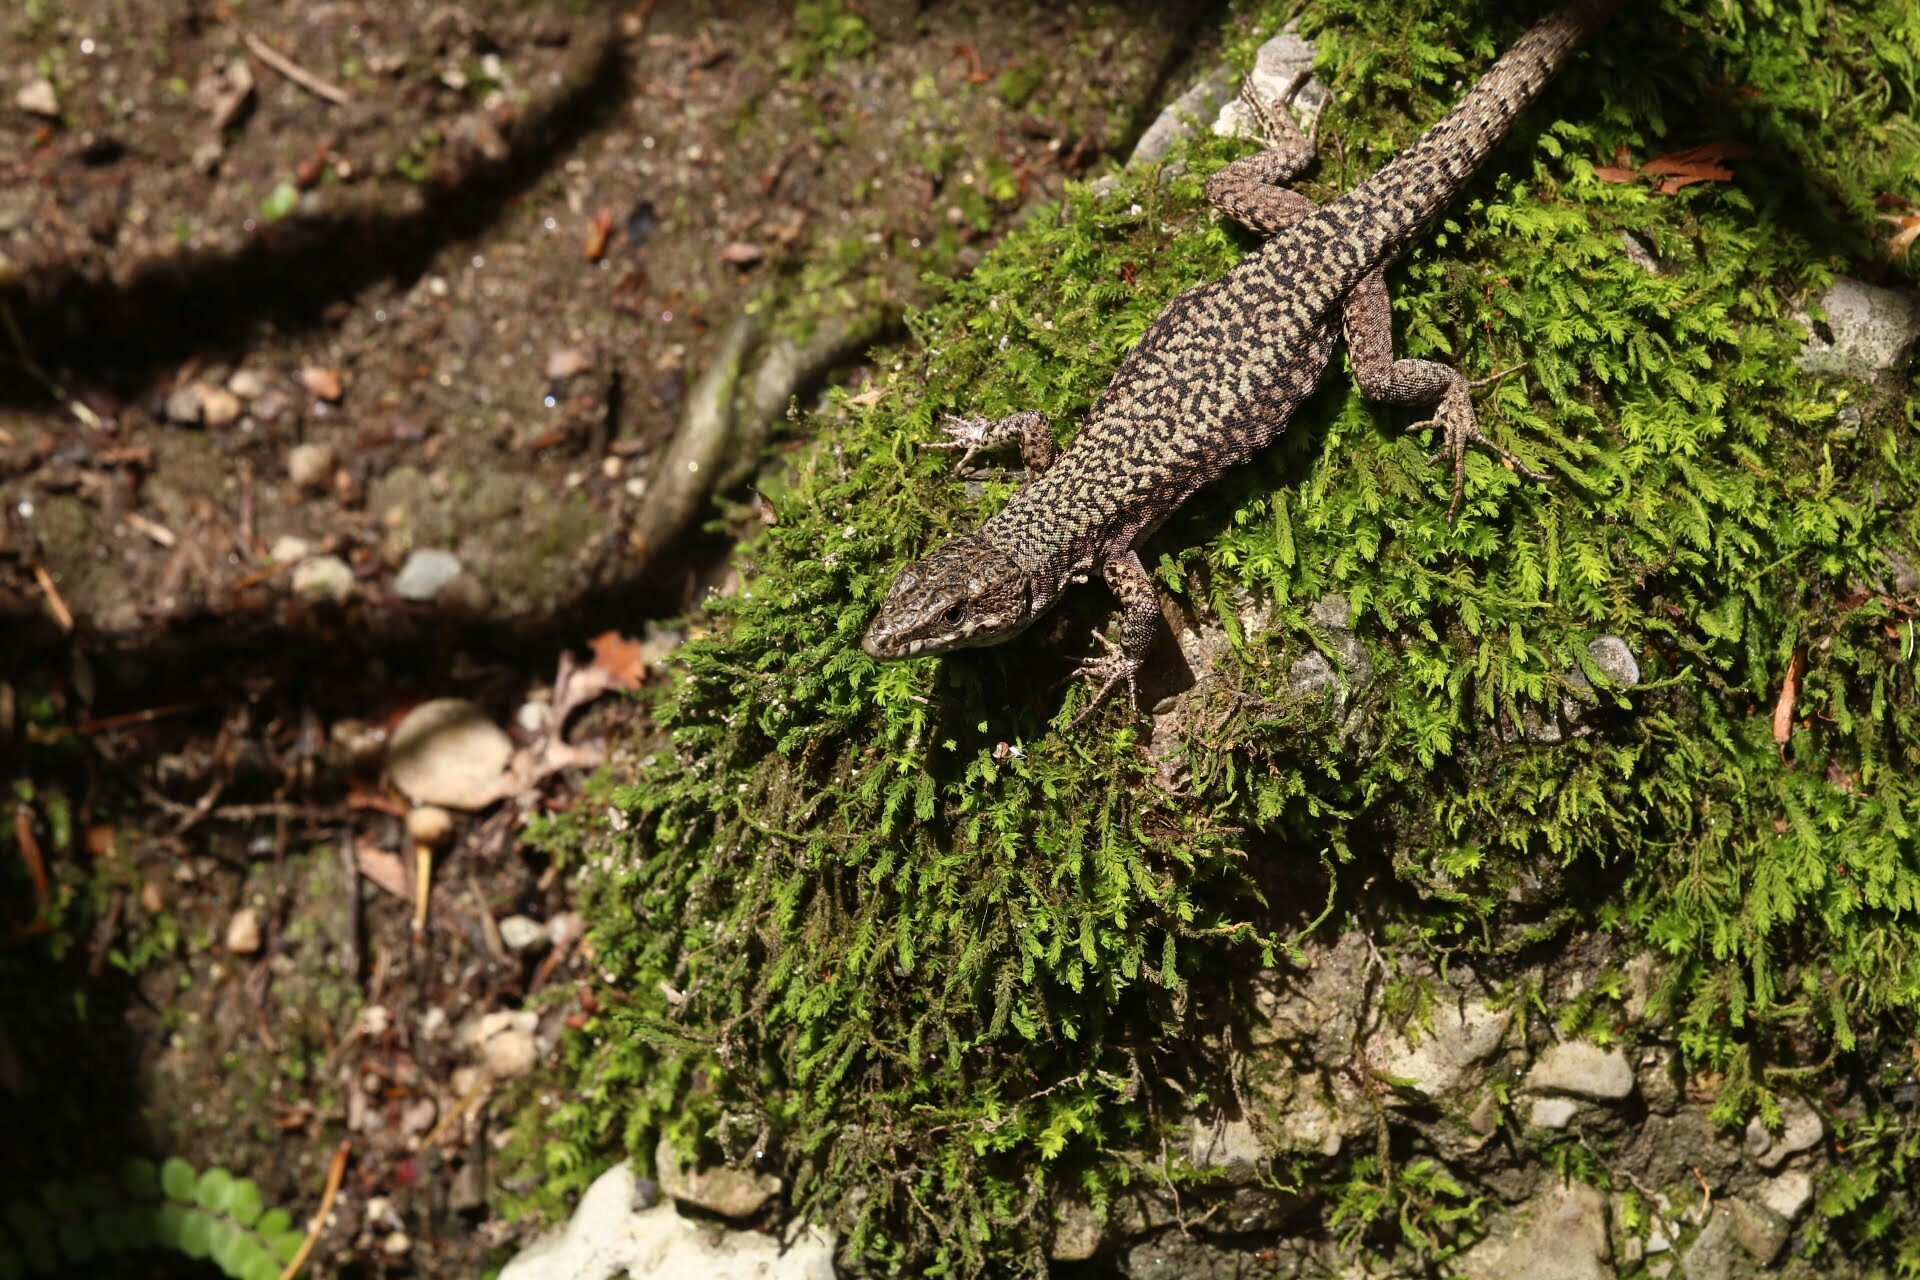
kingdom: Animalia
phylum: Chordata
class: Squamata
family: Lacertidae
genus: Podarcis
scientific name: Podarcis muralis
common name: Common wall lizard
